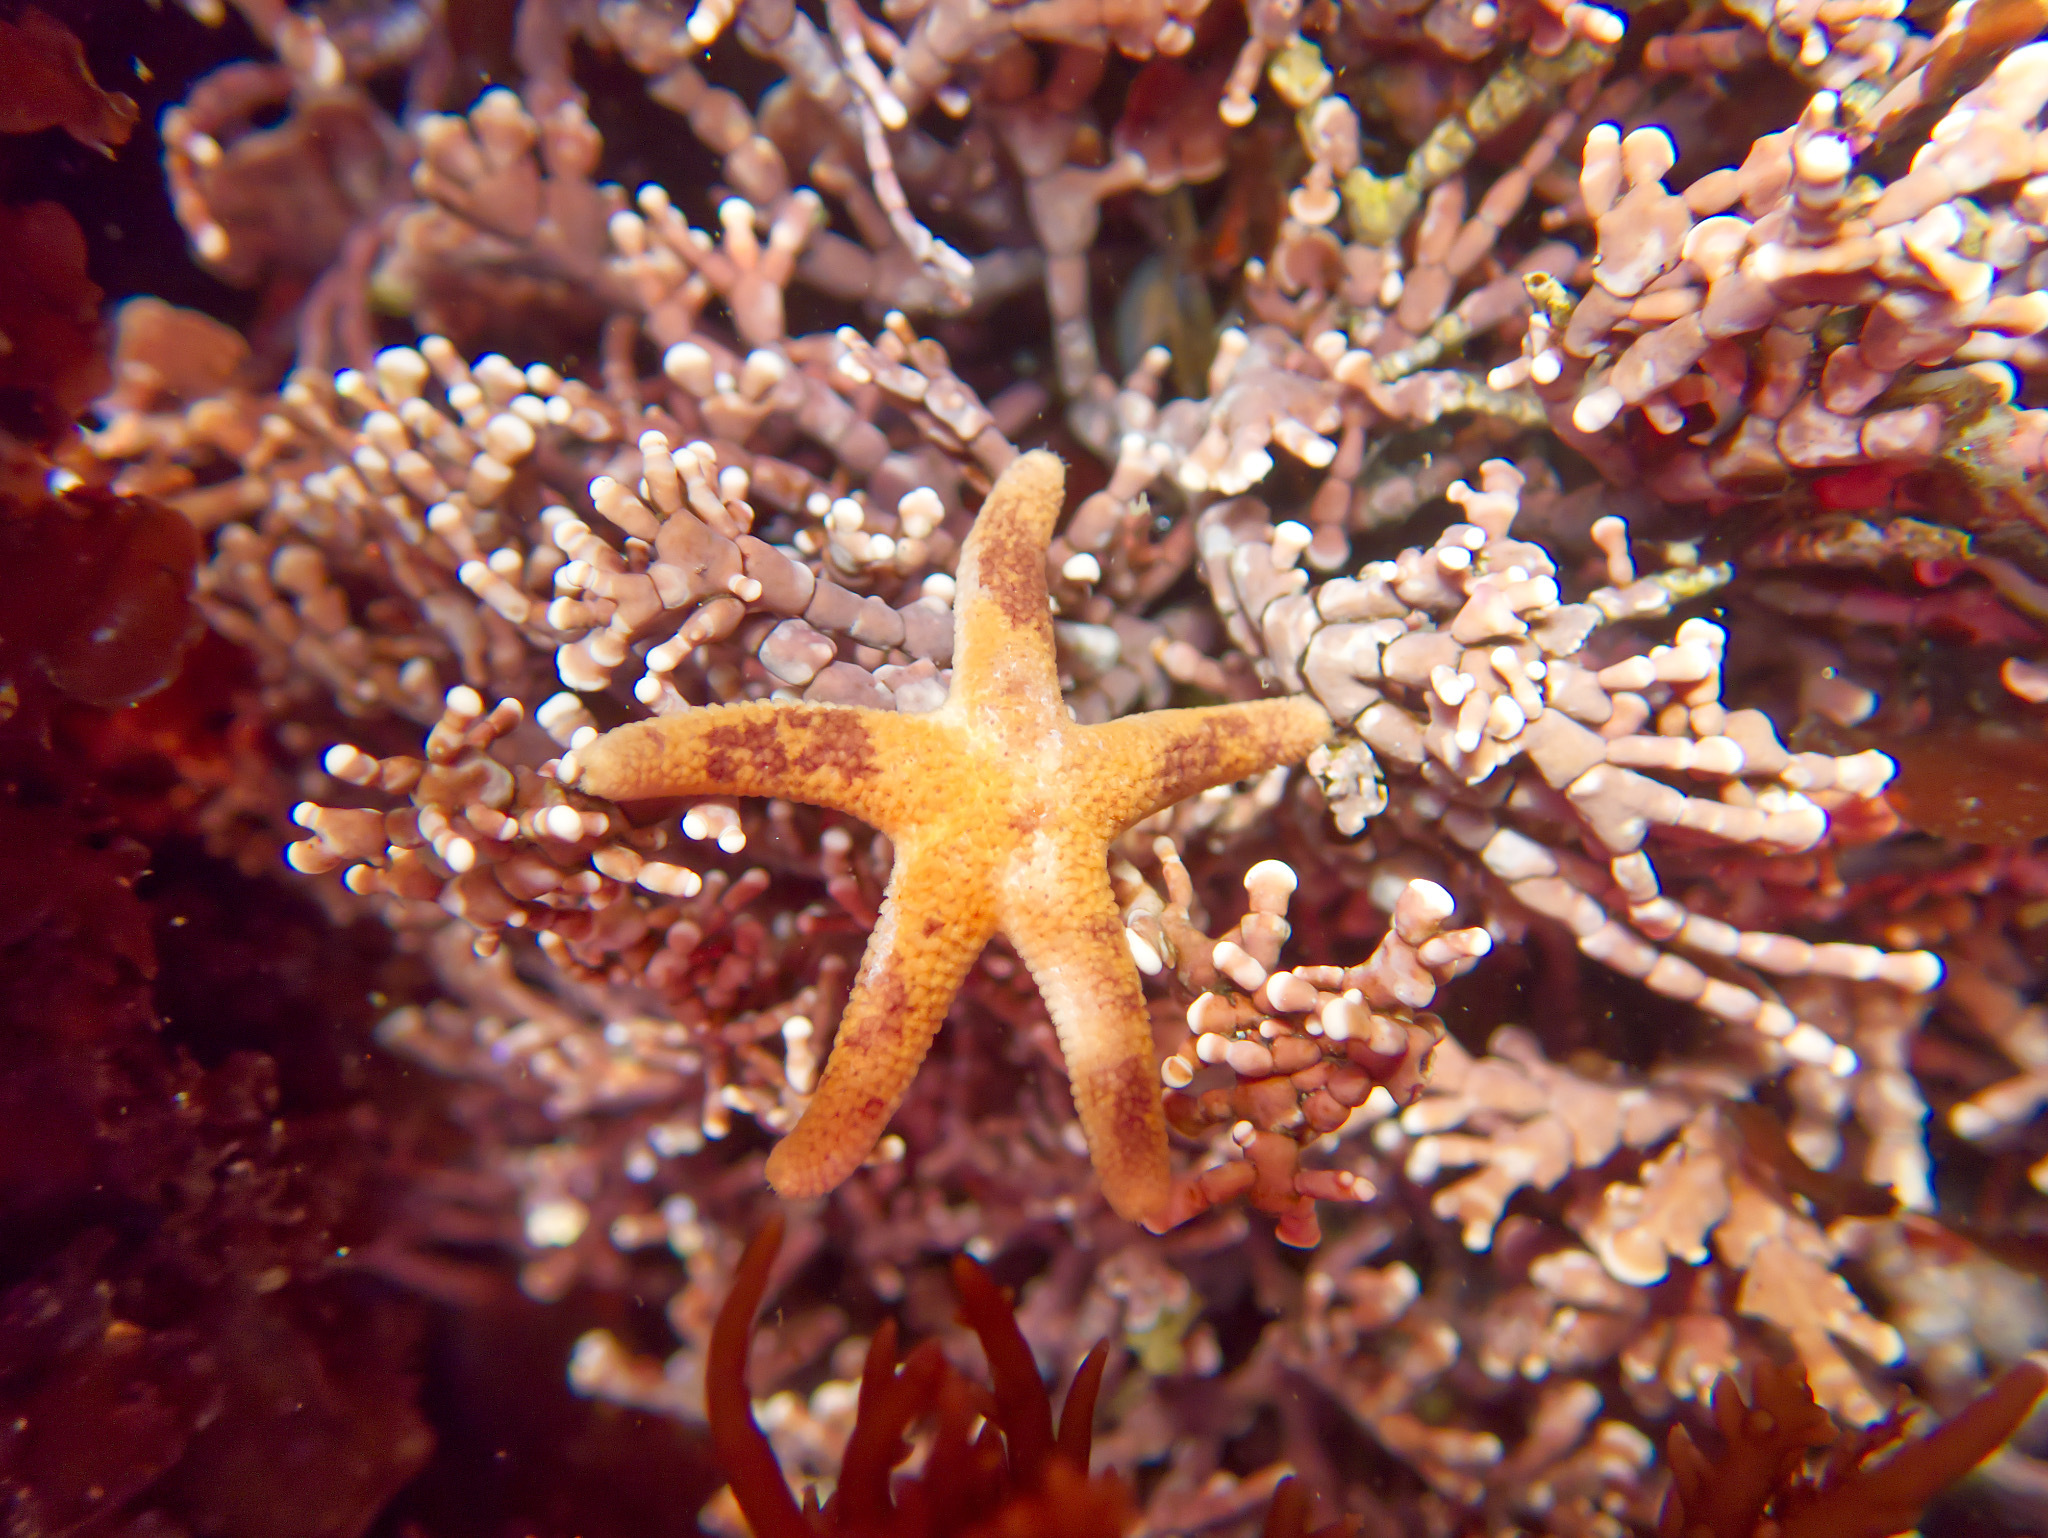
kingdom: Animalia
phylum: Echinodermata
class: Asteroidea
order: Spinulosida
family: Echinasteridae
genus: Henricia
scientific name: Henricia pumila
